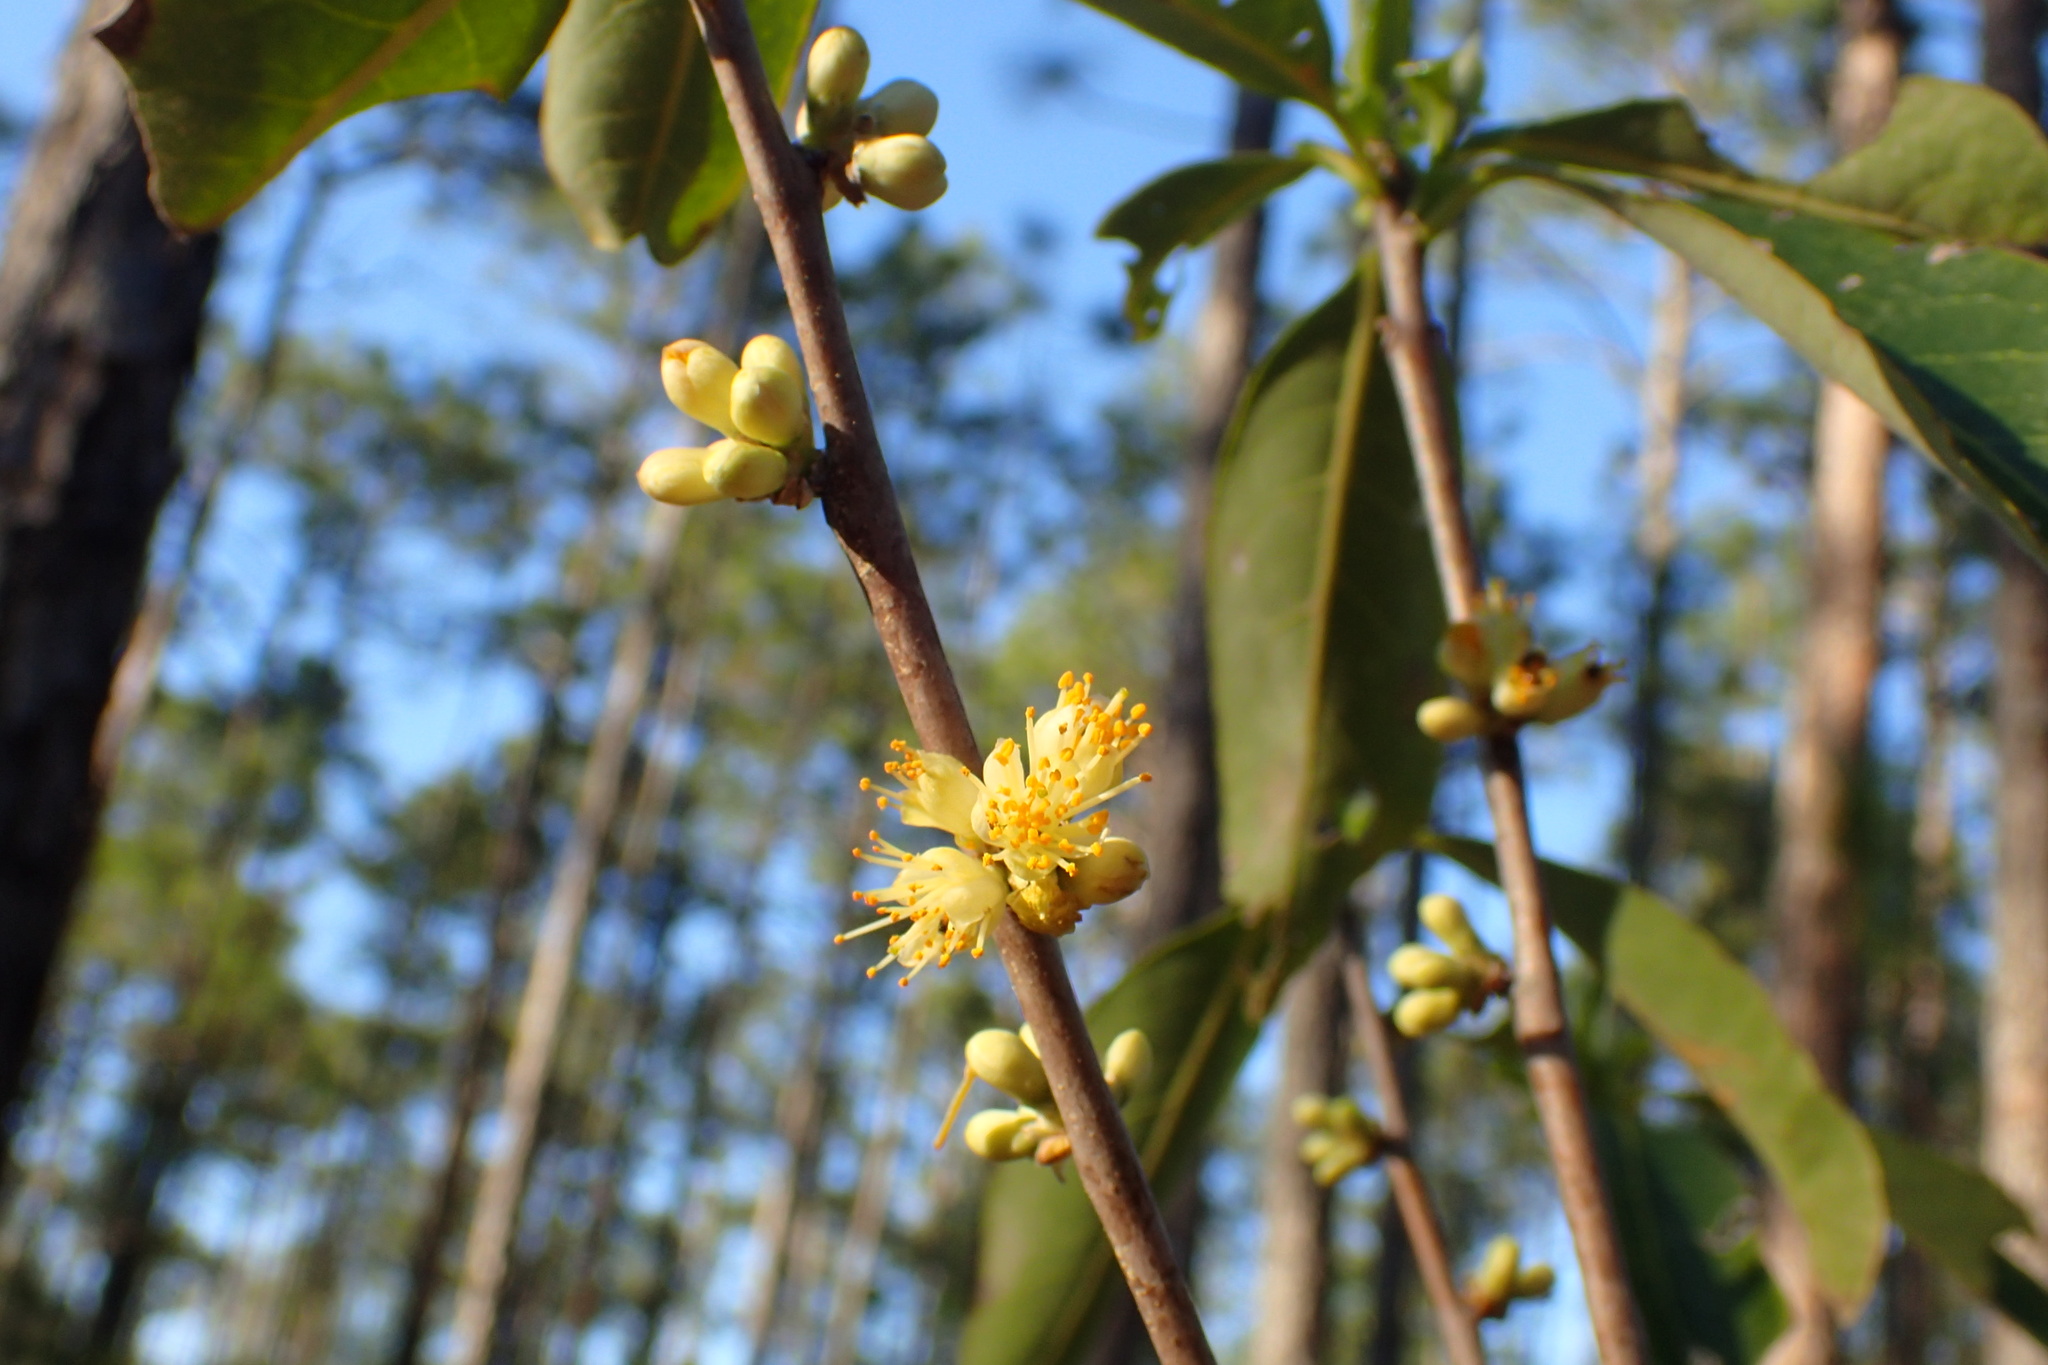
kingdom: Plantae
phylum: Tracheophyta
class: Magnoliopsida
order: Ericales
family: Symplocaceae
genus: Symplocos
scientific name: Symplocos tinctoria
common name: Horse-sugar
